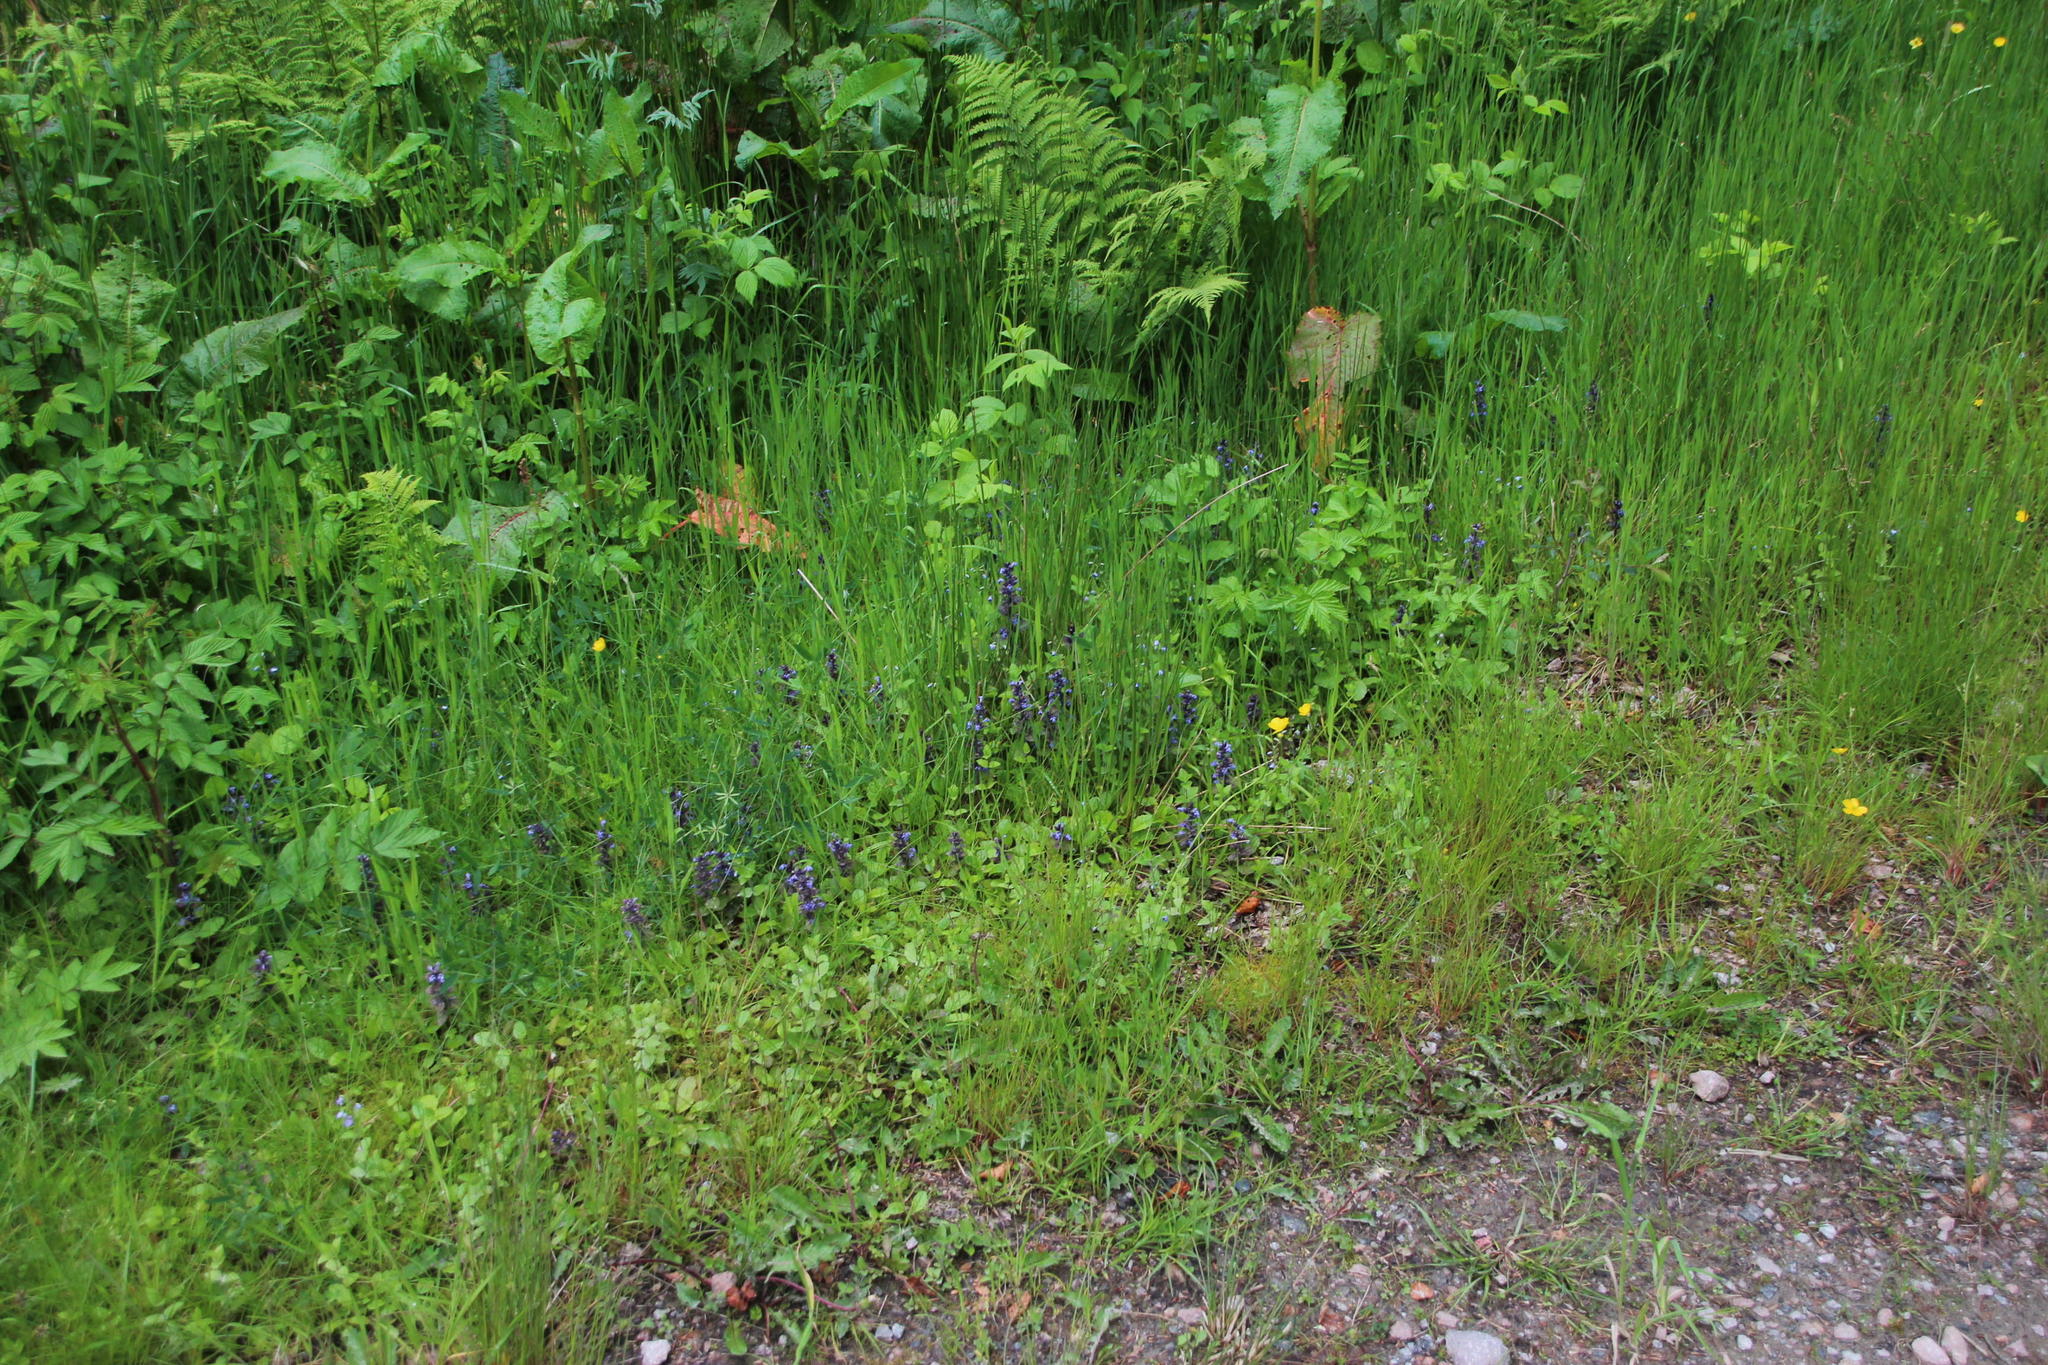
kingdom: Plantae
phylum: Tracheophyta
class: Magnoliopsida
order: Lamiales
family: Lamiaceae
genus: Ajuga
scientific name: Ajuga reptans
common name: Bugle
